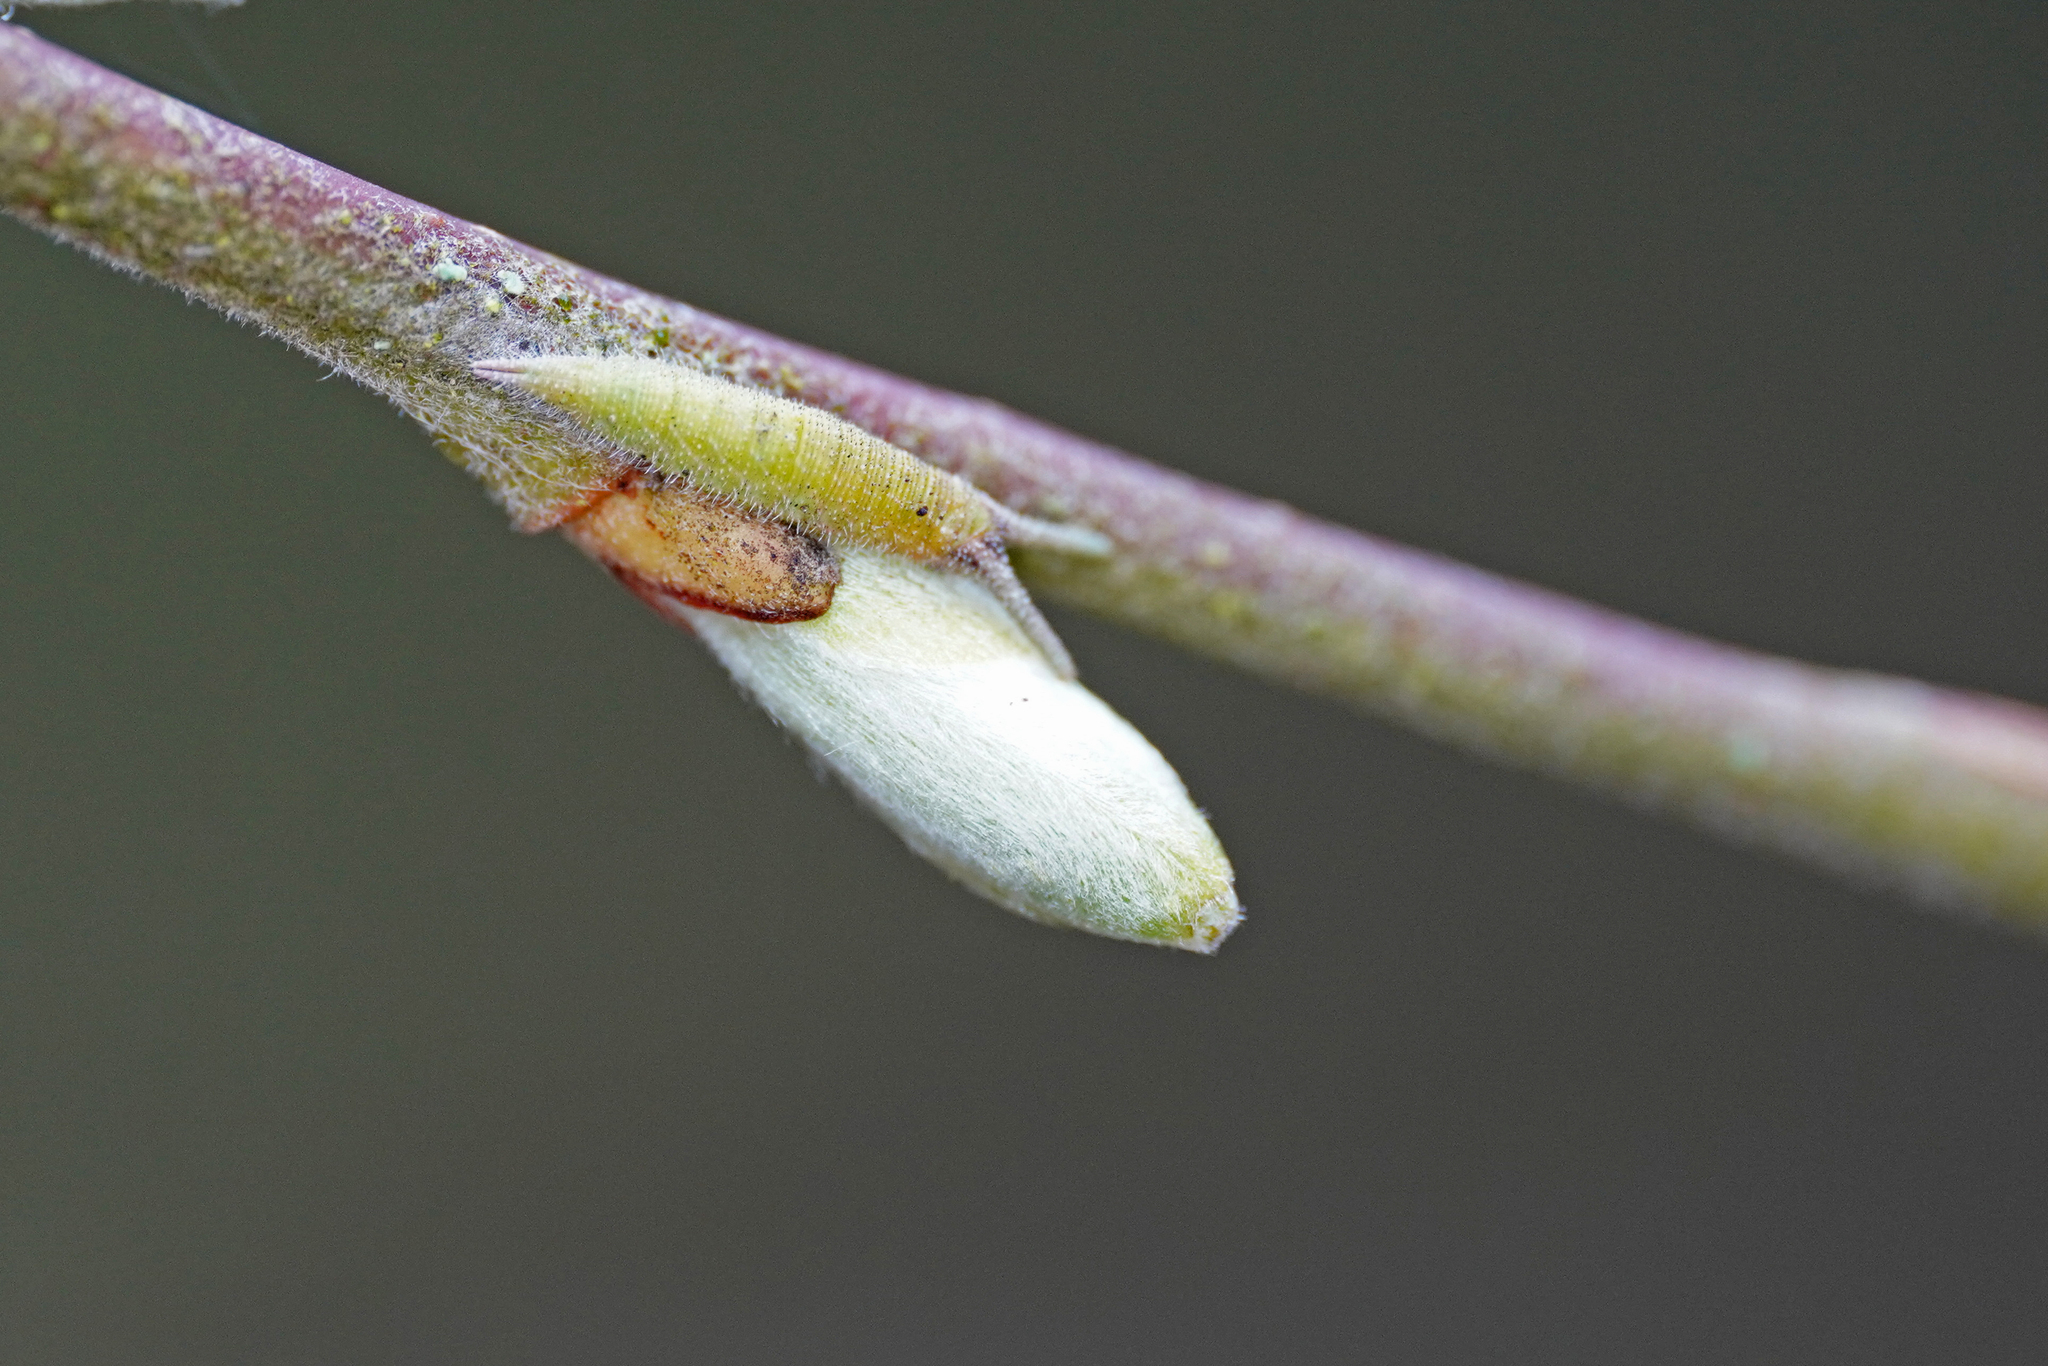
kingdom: Animalia
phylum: Arthropoda
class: Insecta
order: Lepidoptera
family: Nymphalidae
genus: Apatura
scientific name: Apatura iris
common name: Purple emperor
